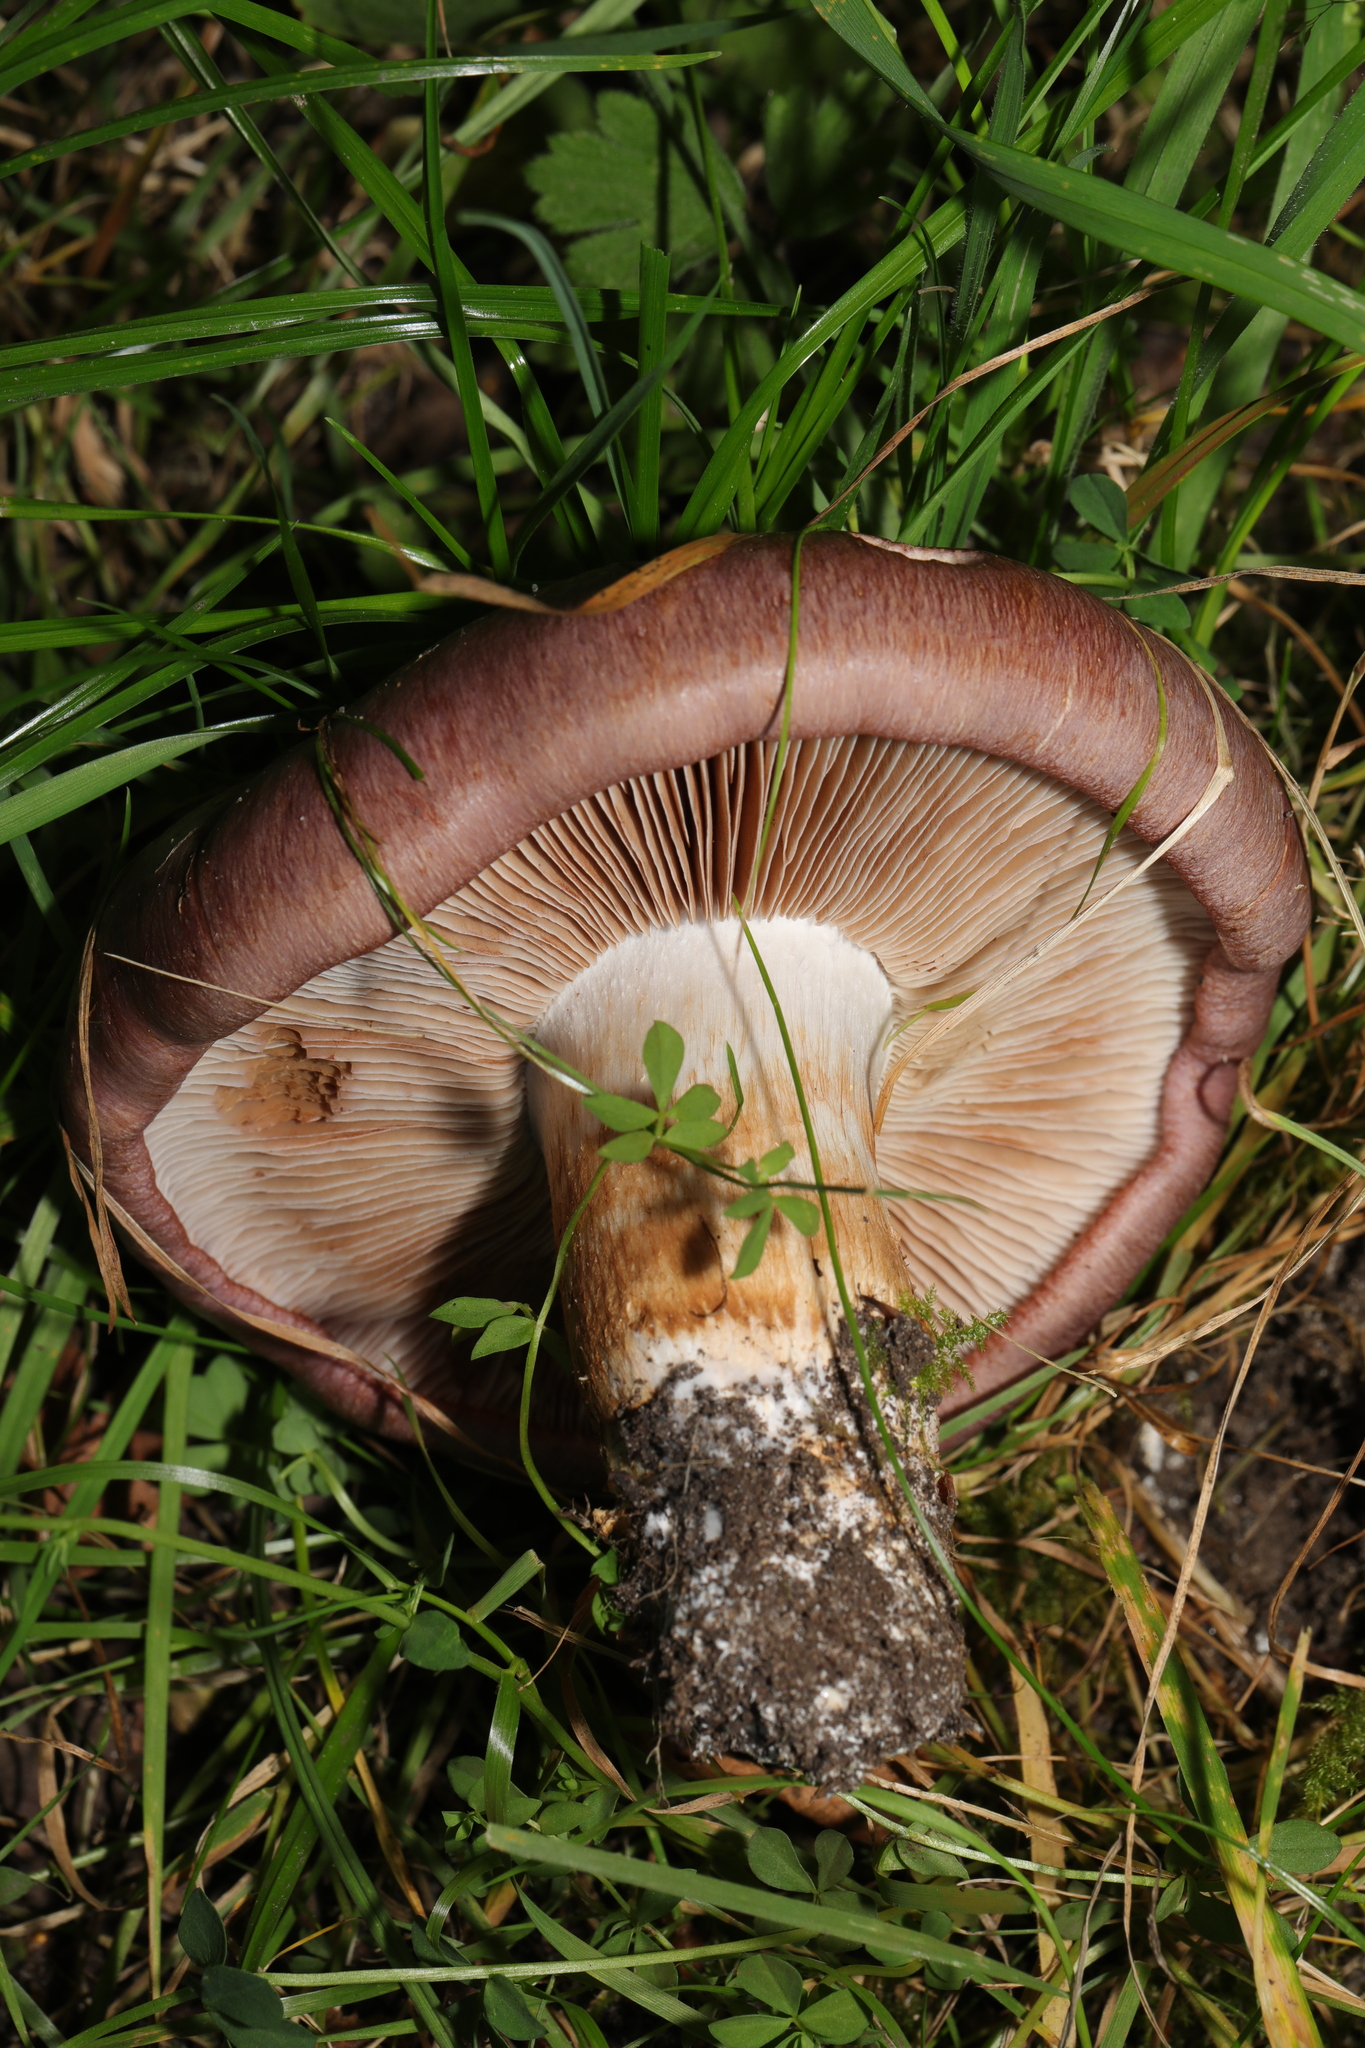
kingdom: Fungi
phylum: Basidiomycota
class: Agaricomycetes
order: Agaricales
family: Cortinariaceae
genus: Cortinarius
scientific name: Cortinarius
